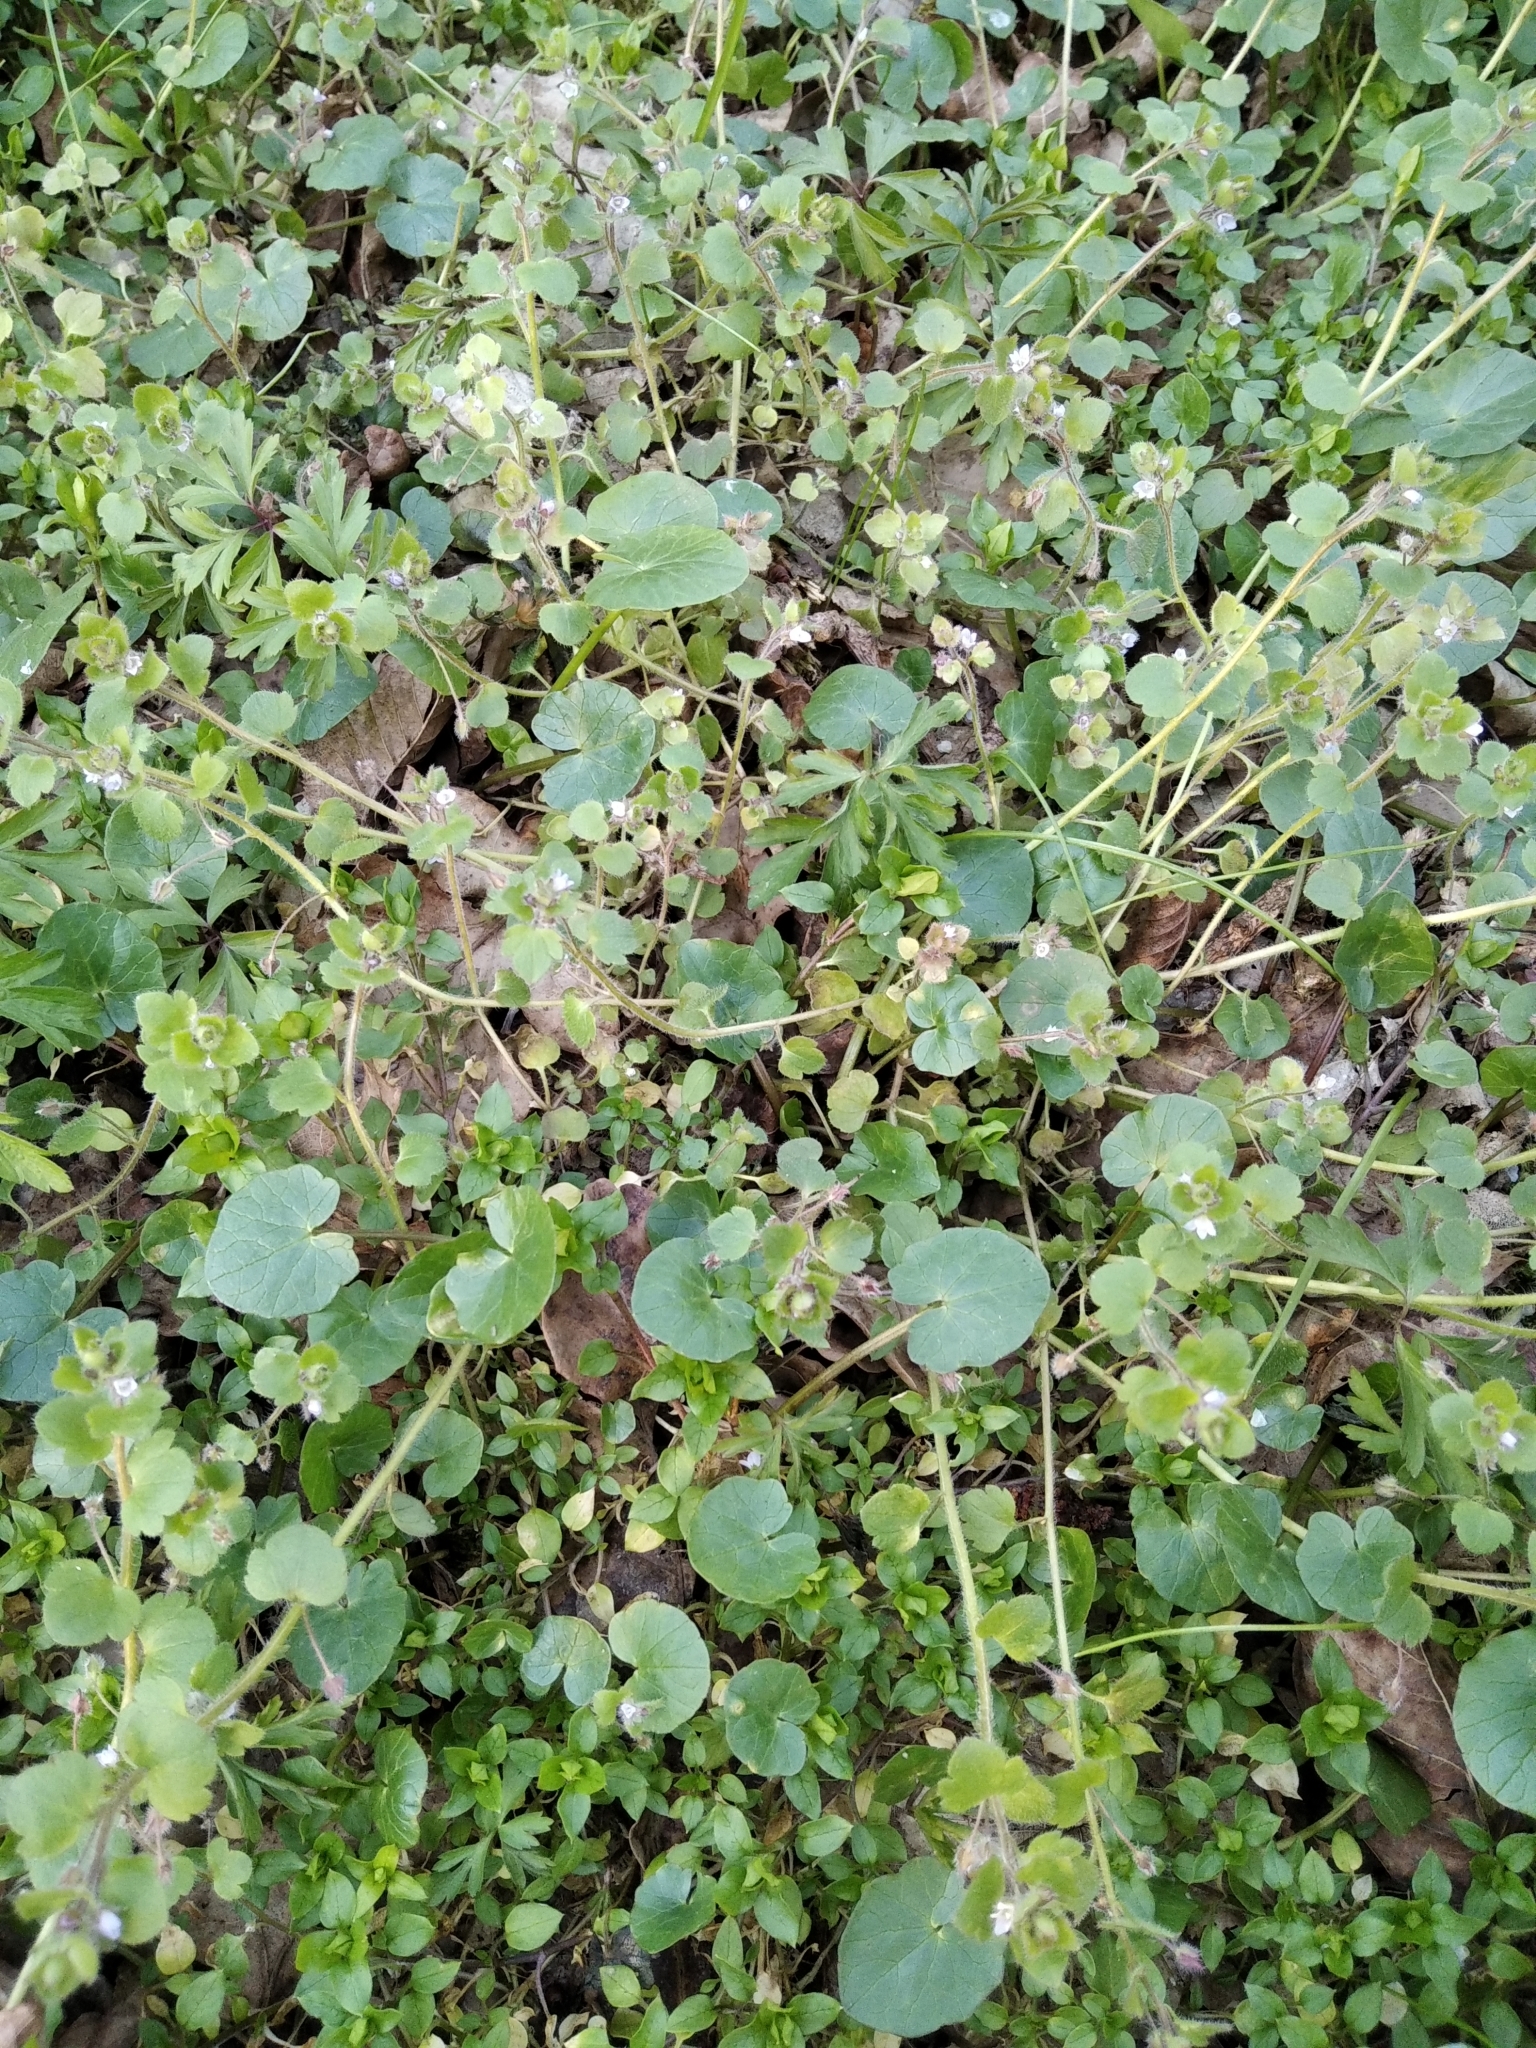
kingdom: Plantae
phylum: Tracheophyta
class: Magnoliopsida
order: Lamiales
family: Plantaginaceae
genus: Veronica
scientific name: Veronica sublobata
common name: False ivy-leaved speedwell
